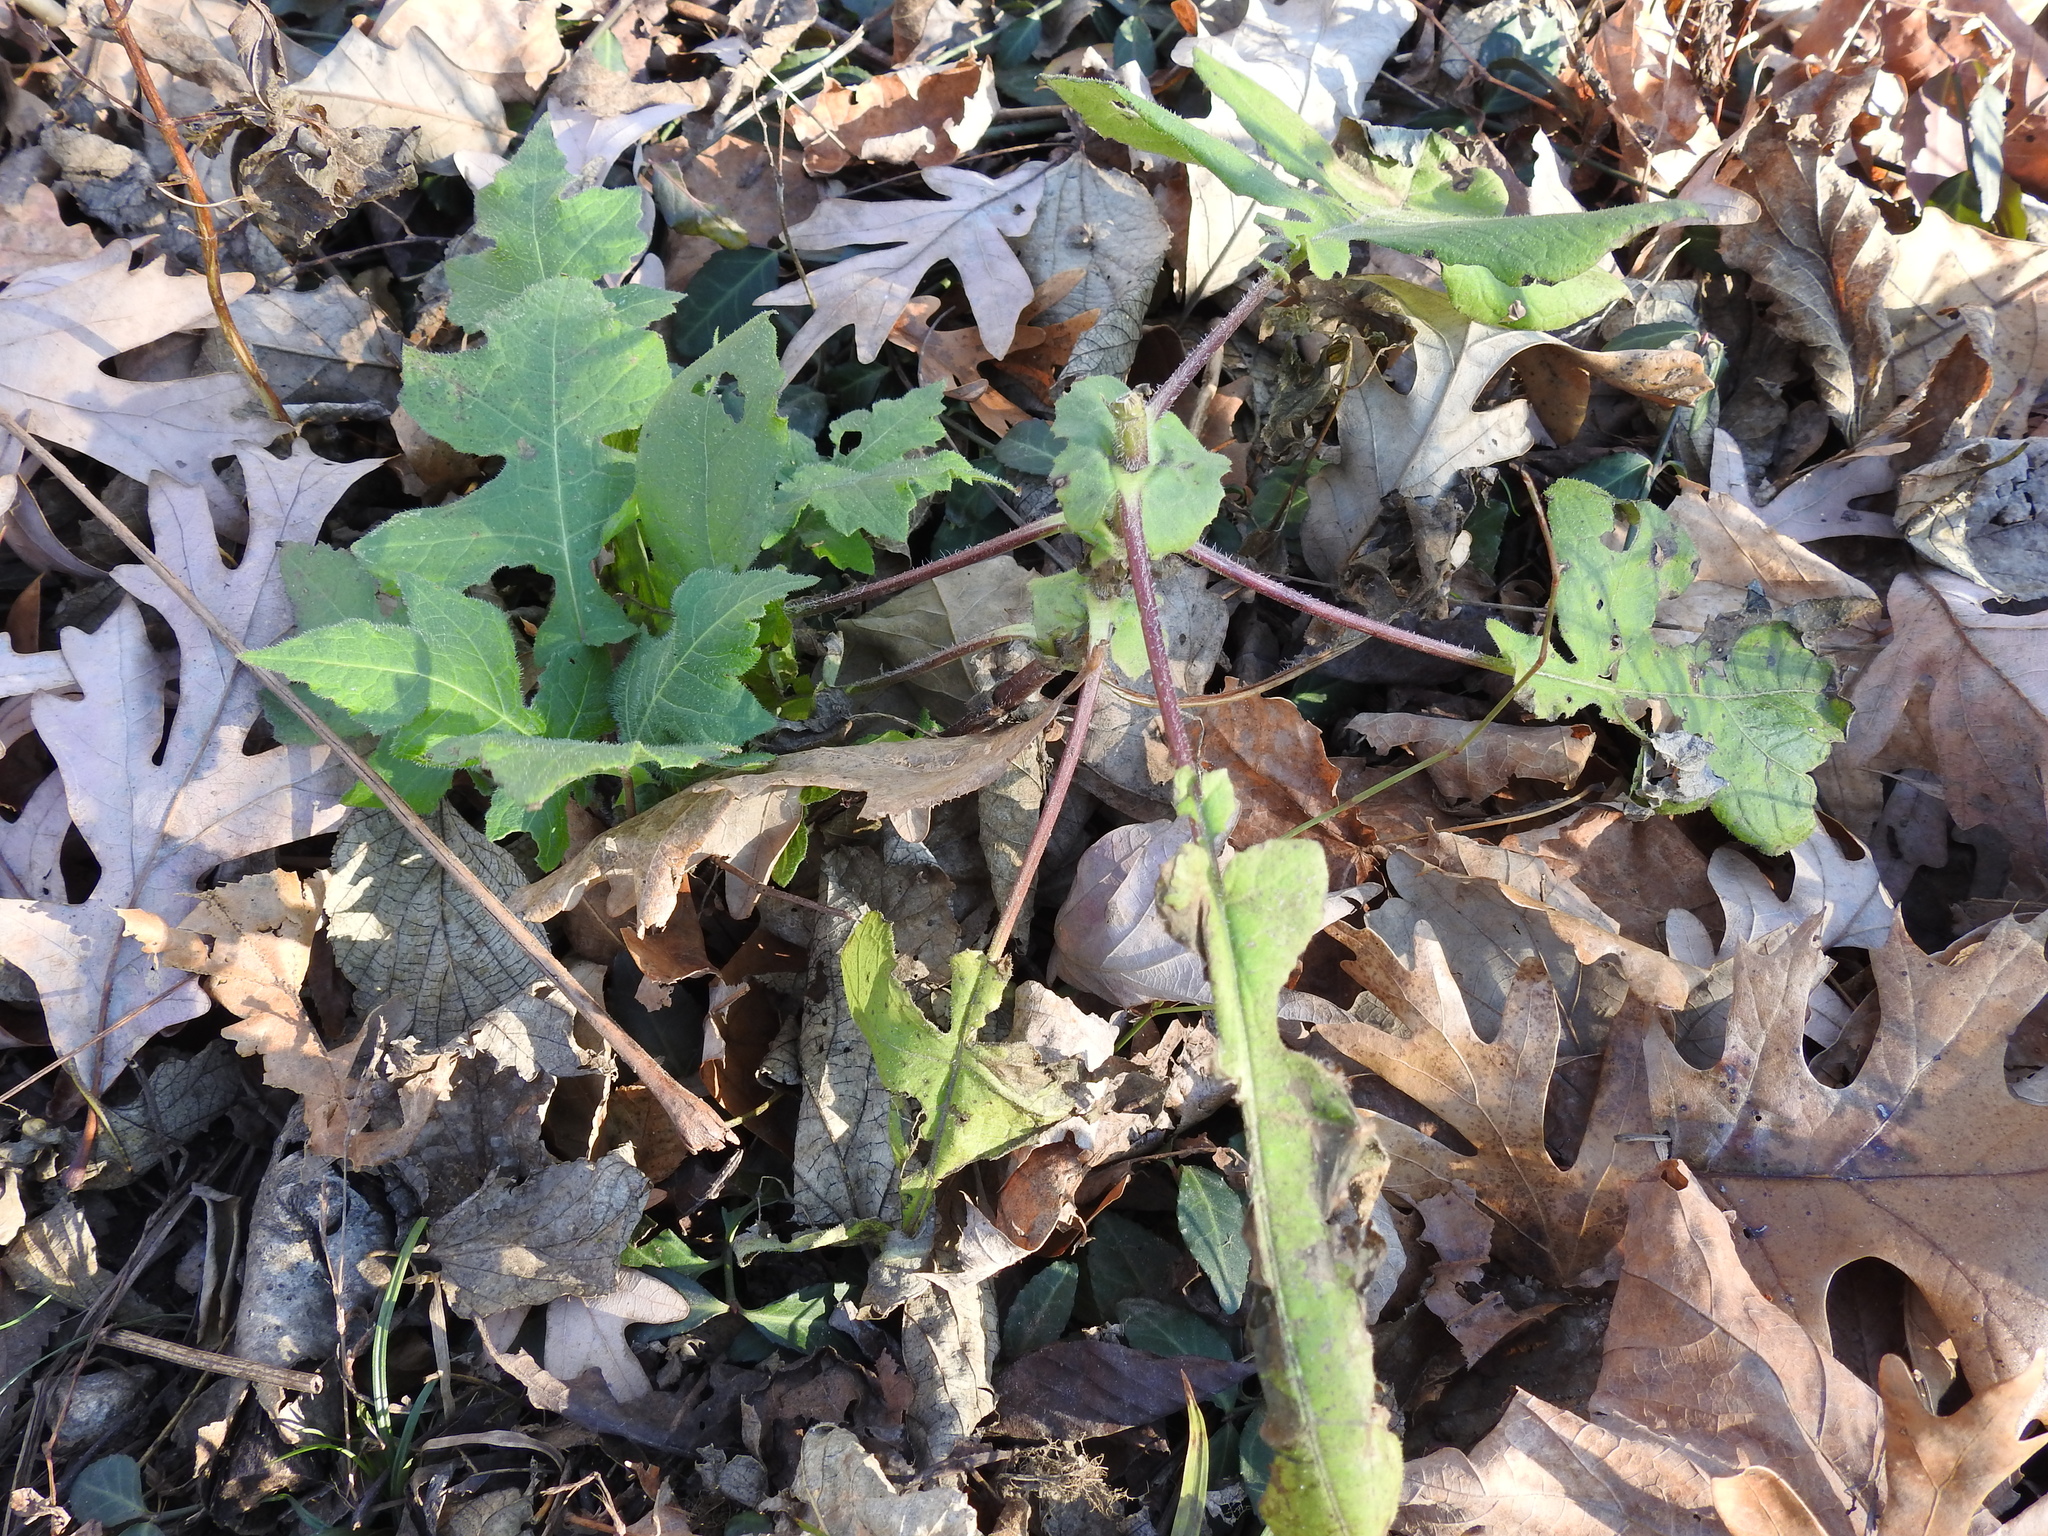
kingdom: Plantae
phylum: Tracheophyta
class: Magnoliopsida
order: Asterales
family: Asteraceae
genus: Polymnia
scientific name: Polymnia canadensis
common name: Pale-flowered leafcup
